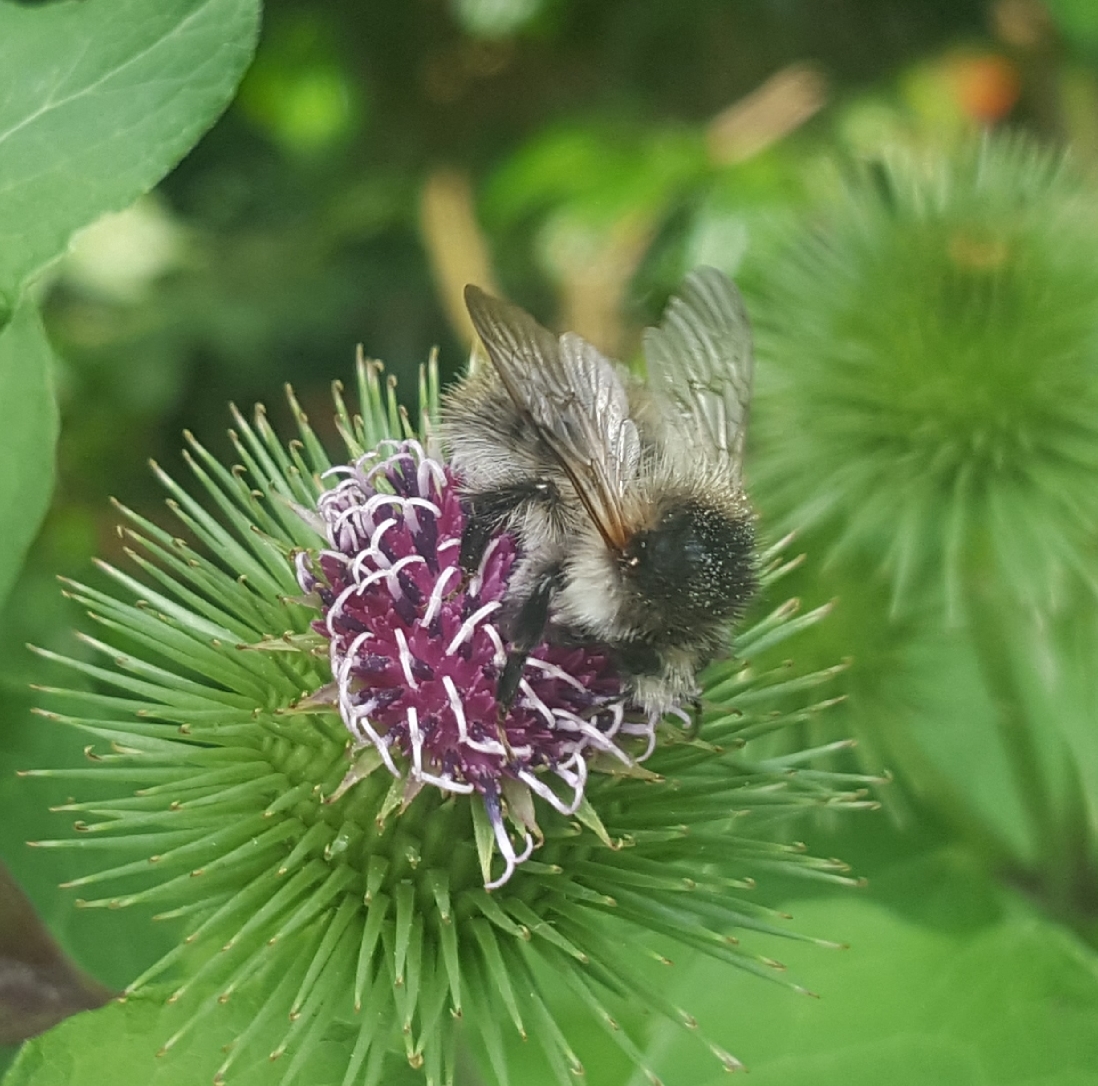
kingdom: Animalia
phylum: Arthropoda
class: Insecta
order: Hymenoptera
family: Apidae
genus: Bombus
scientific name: Bombus pascuorum
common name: Common carder bee
